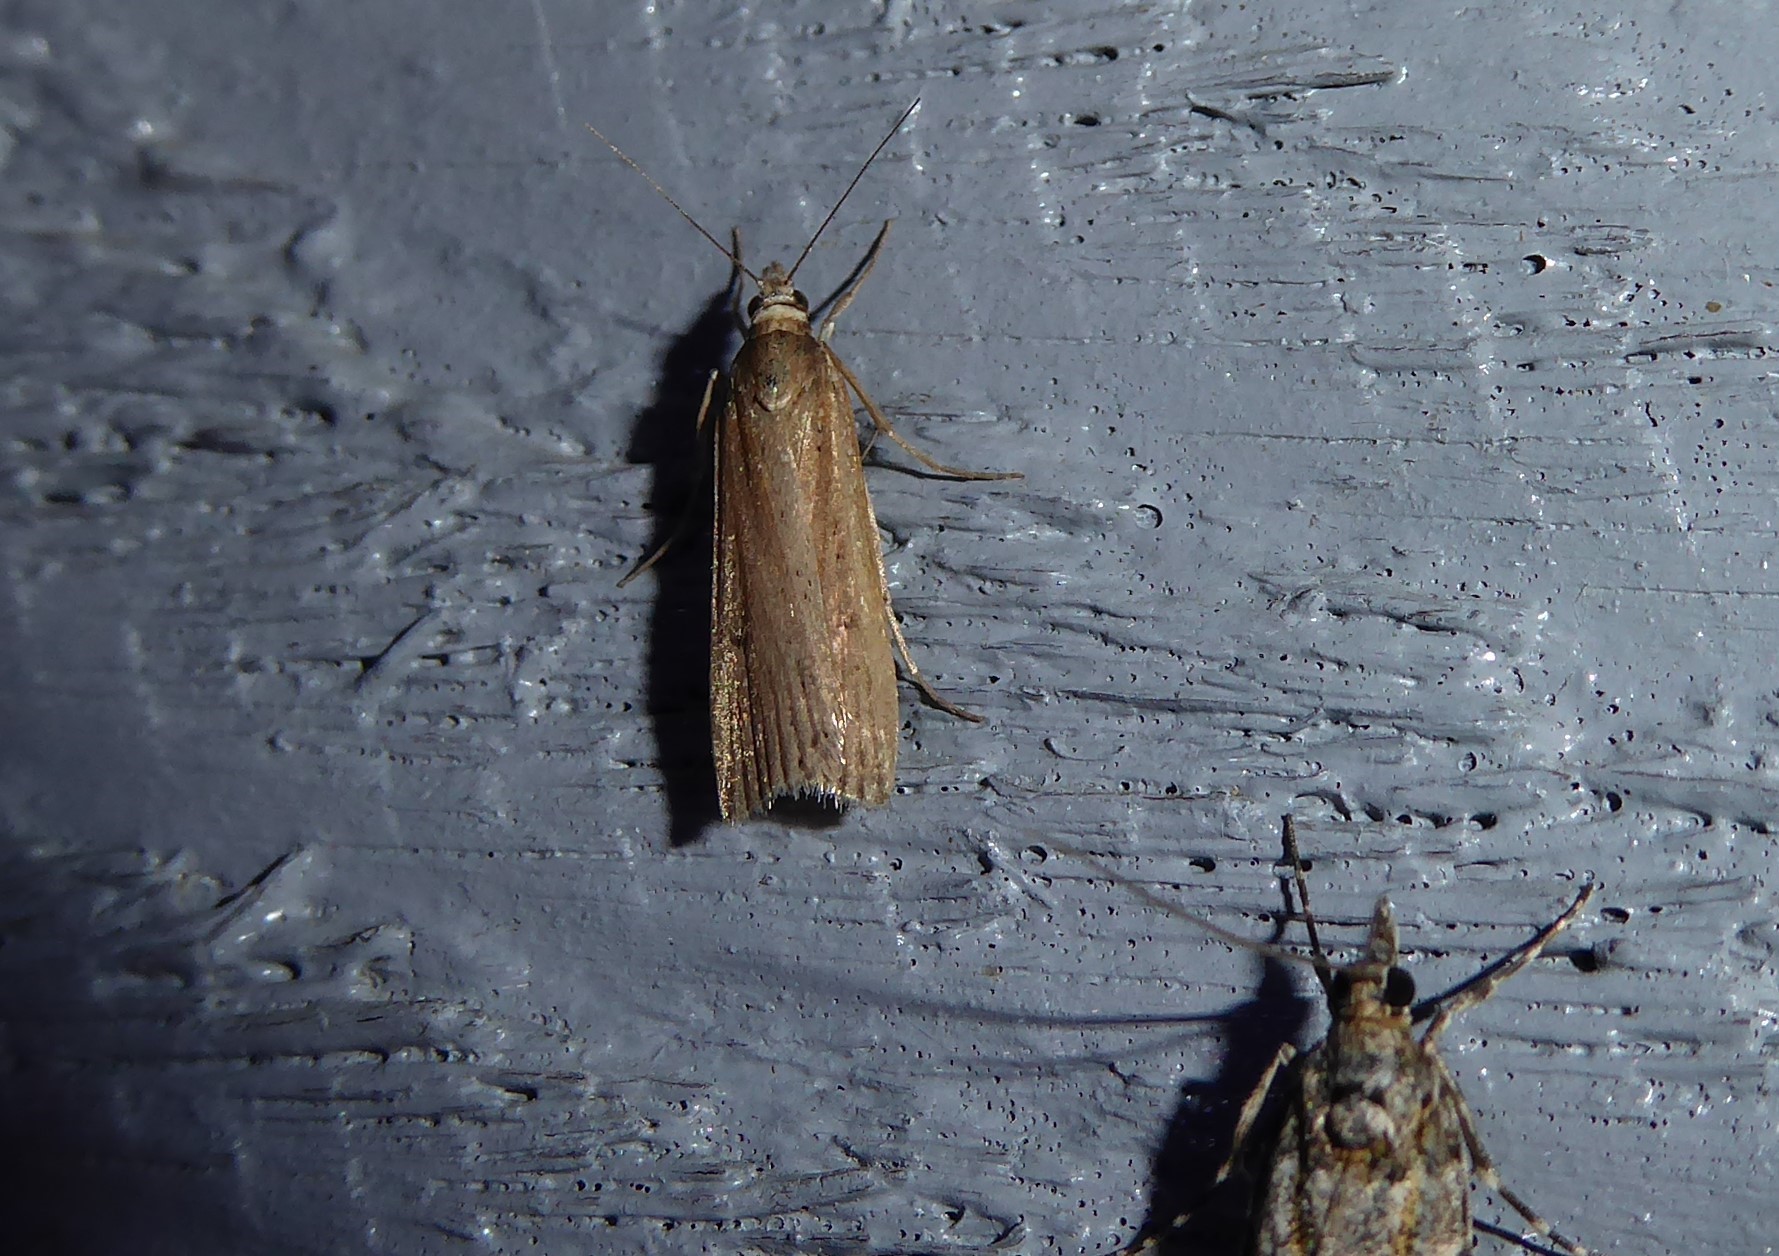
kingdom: Animalia
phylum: Arthropoda
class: Insecta
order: Lepidoptera
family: Crambidae
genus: Eudonia
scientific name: Eudonia sabulosella
